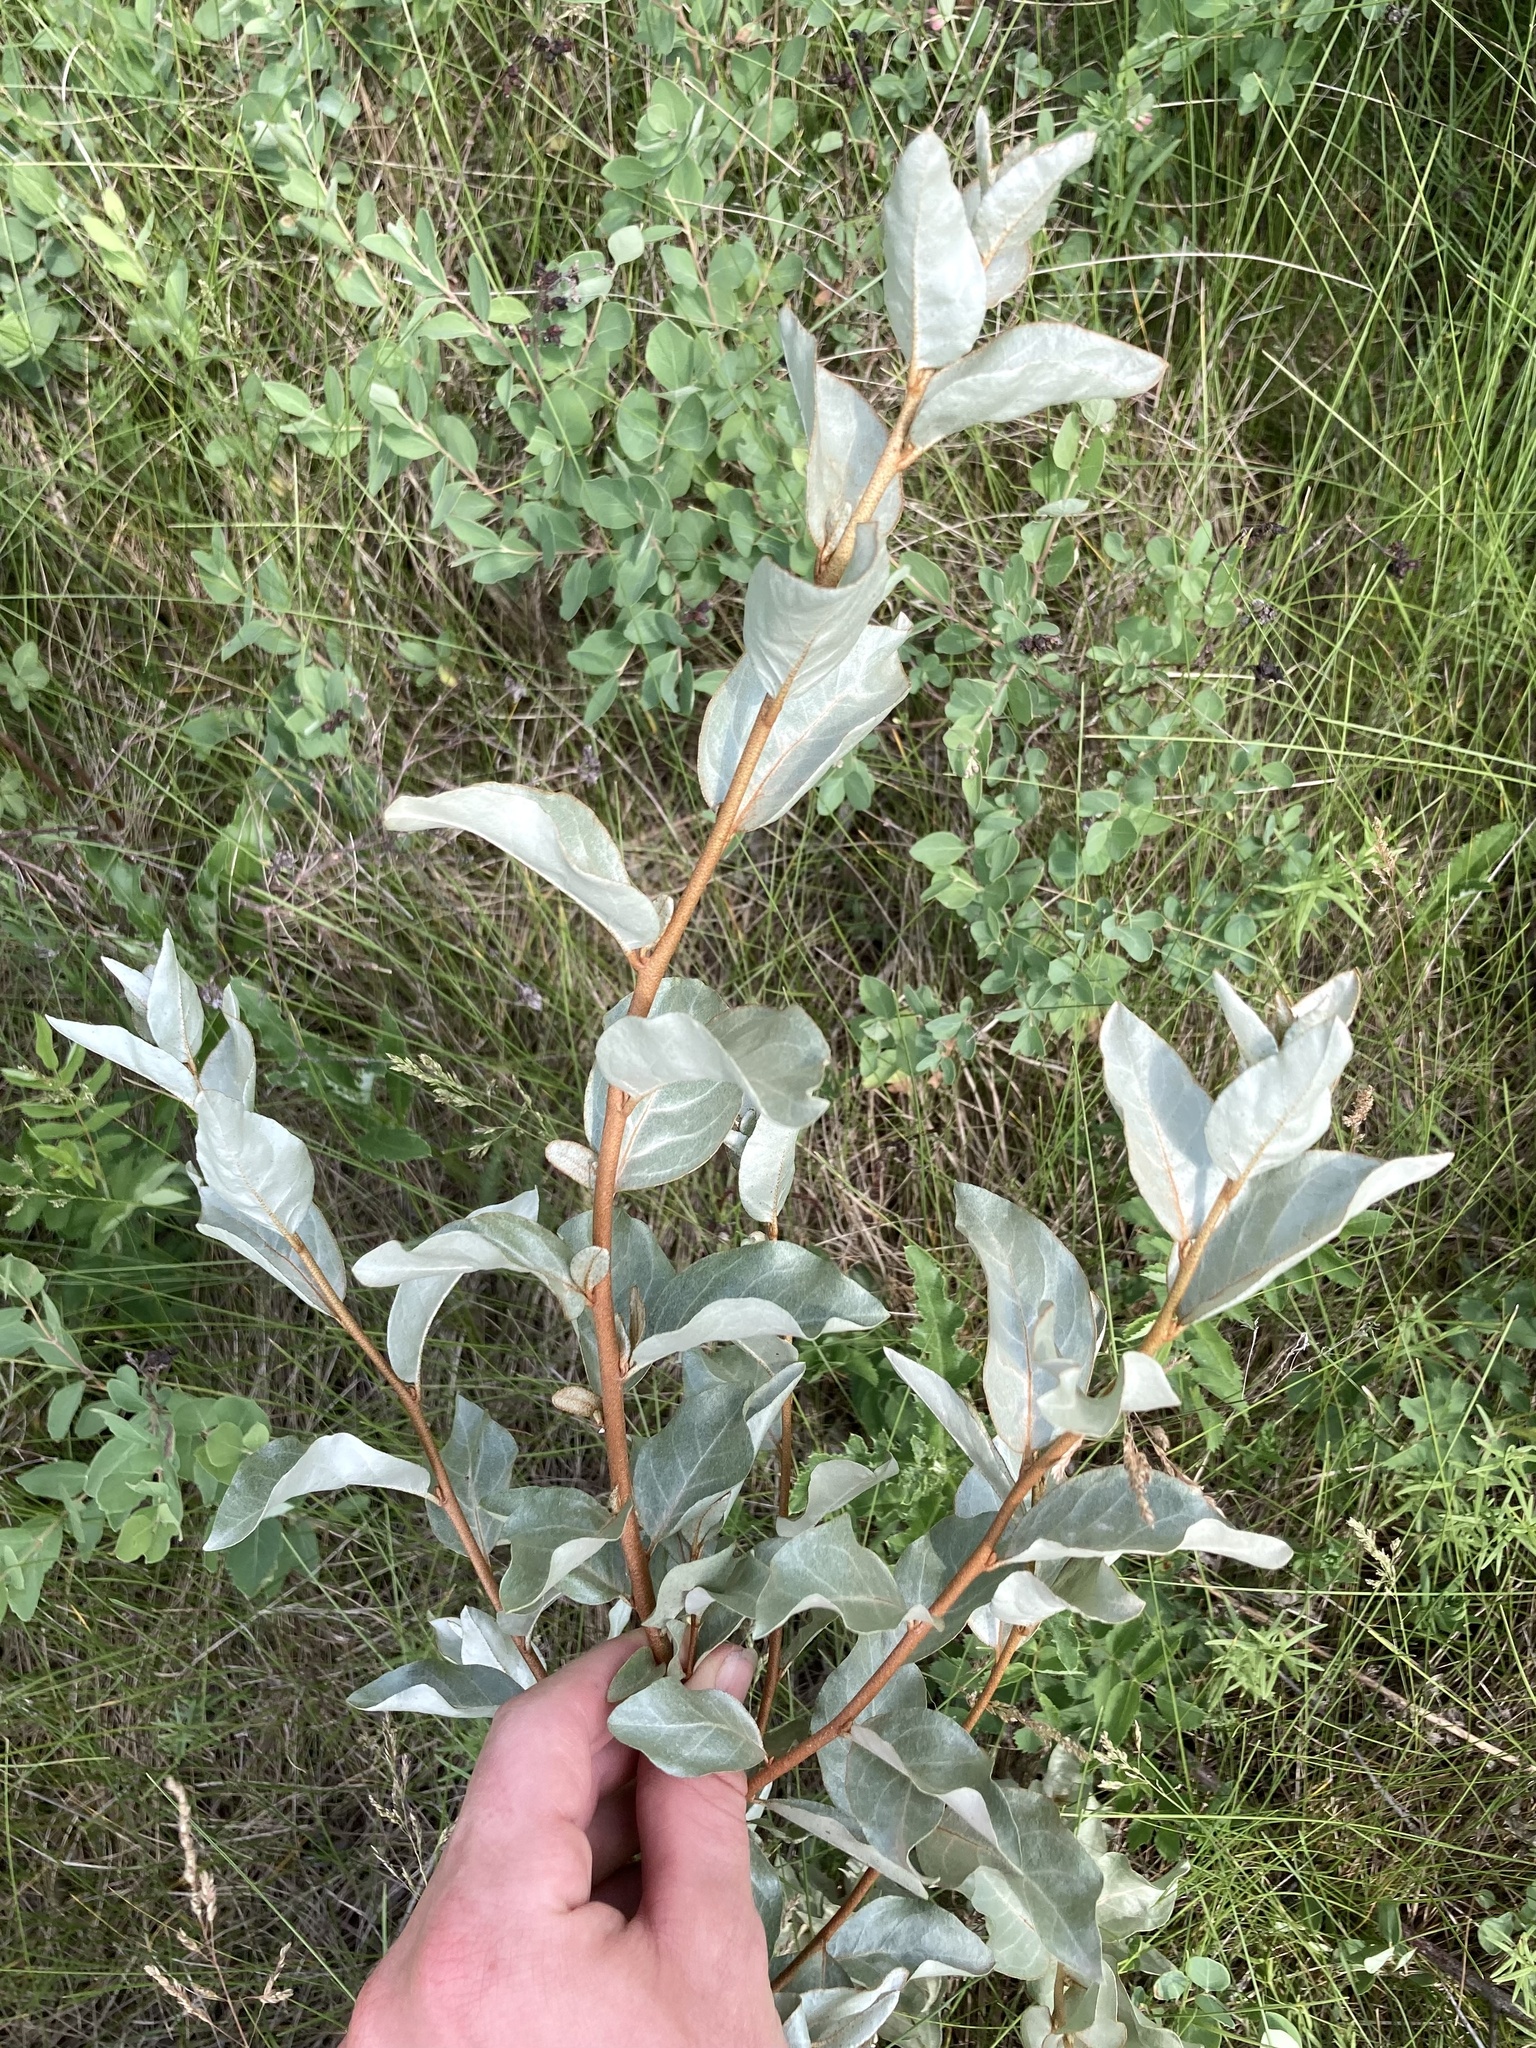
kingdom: Plantae
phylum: Tracheophyta
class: Magnoliopsida
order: Rosales
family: Elaeagnaceae
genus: Elaeagnus
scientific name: Elaeagnus commutata
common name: Silverberry
